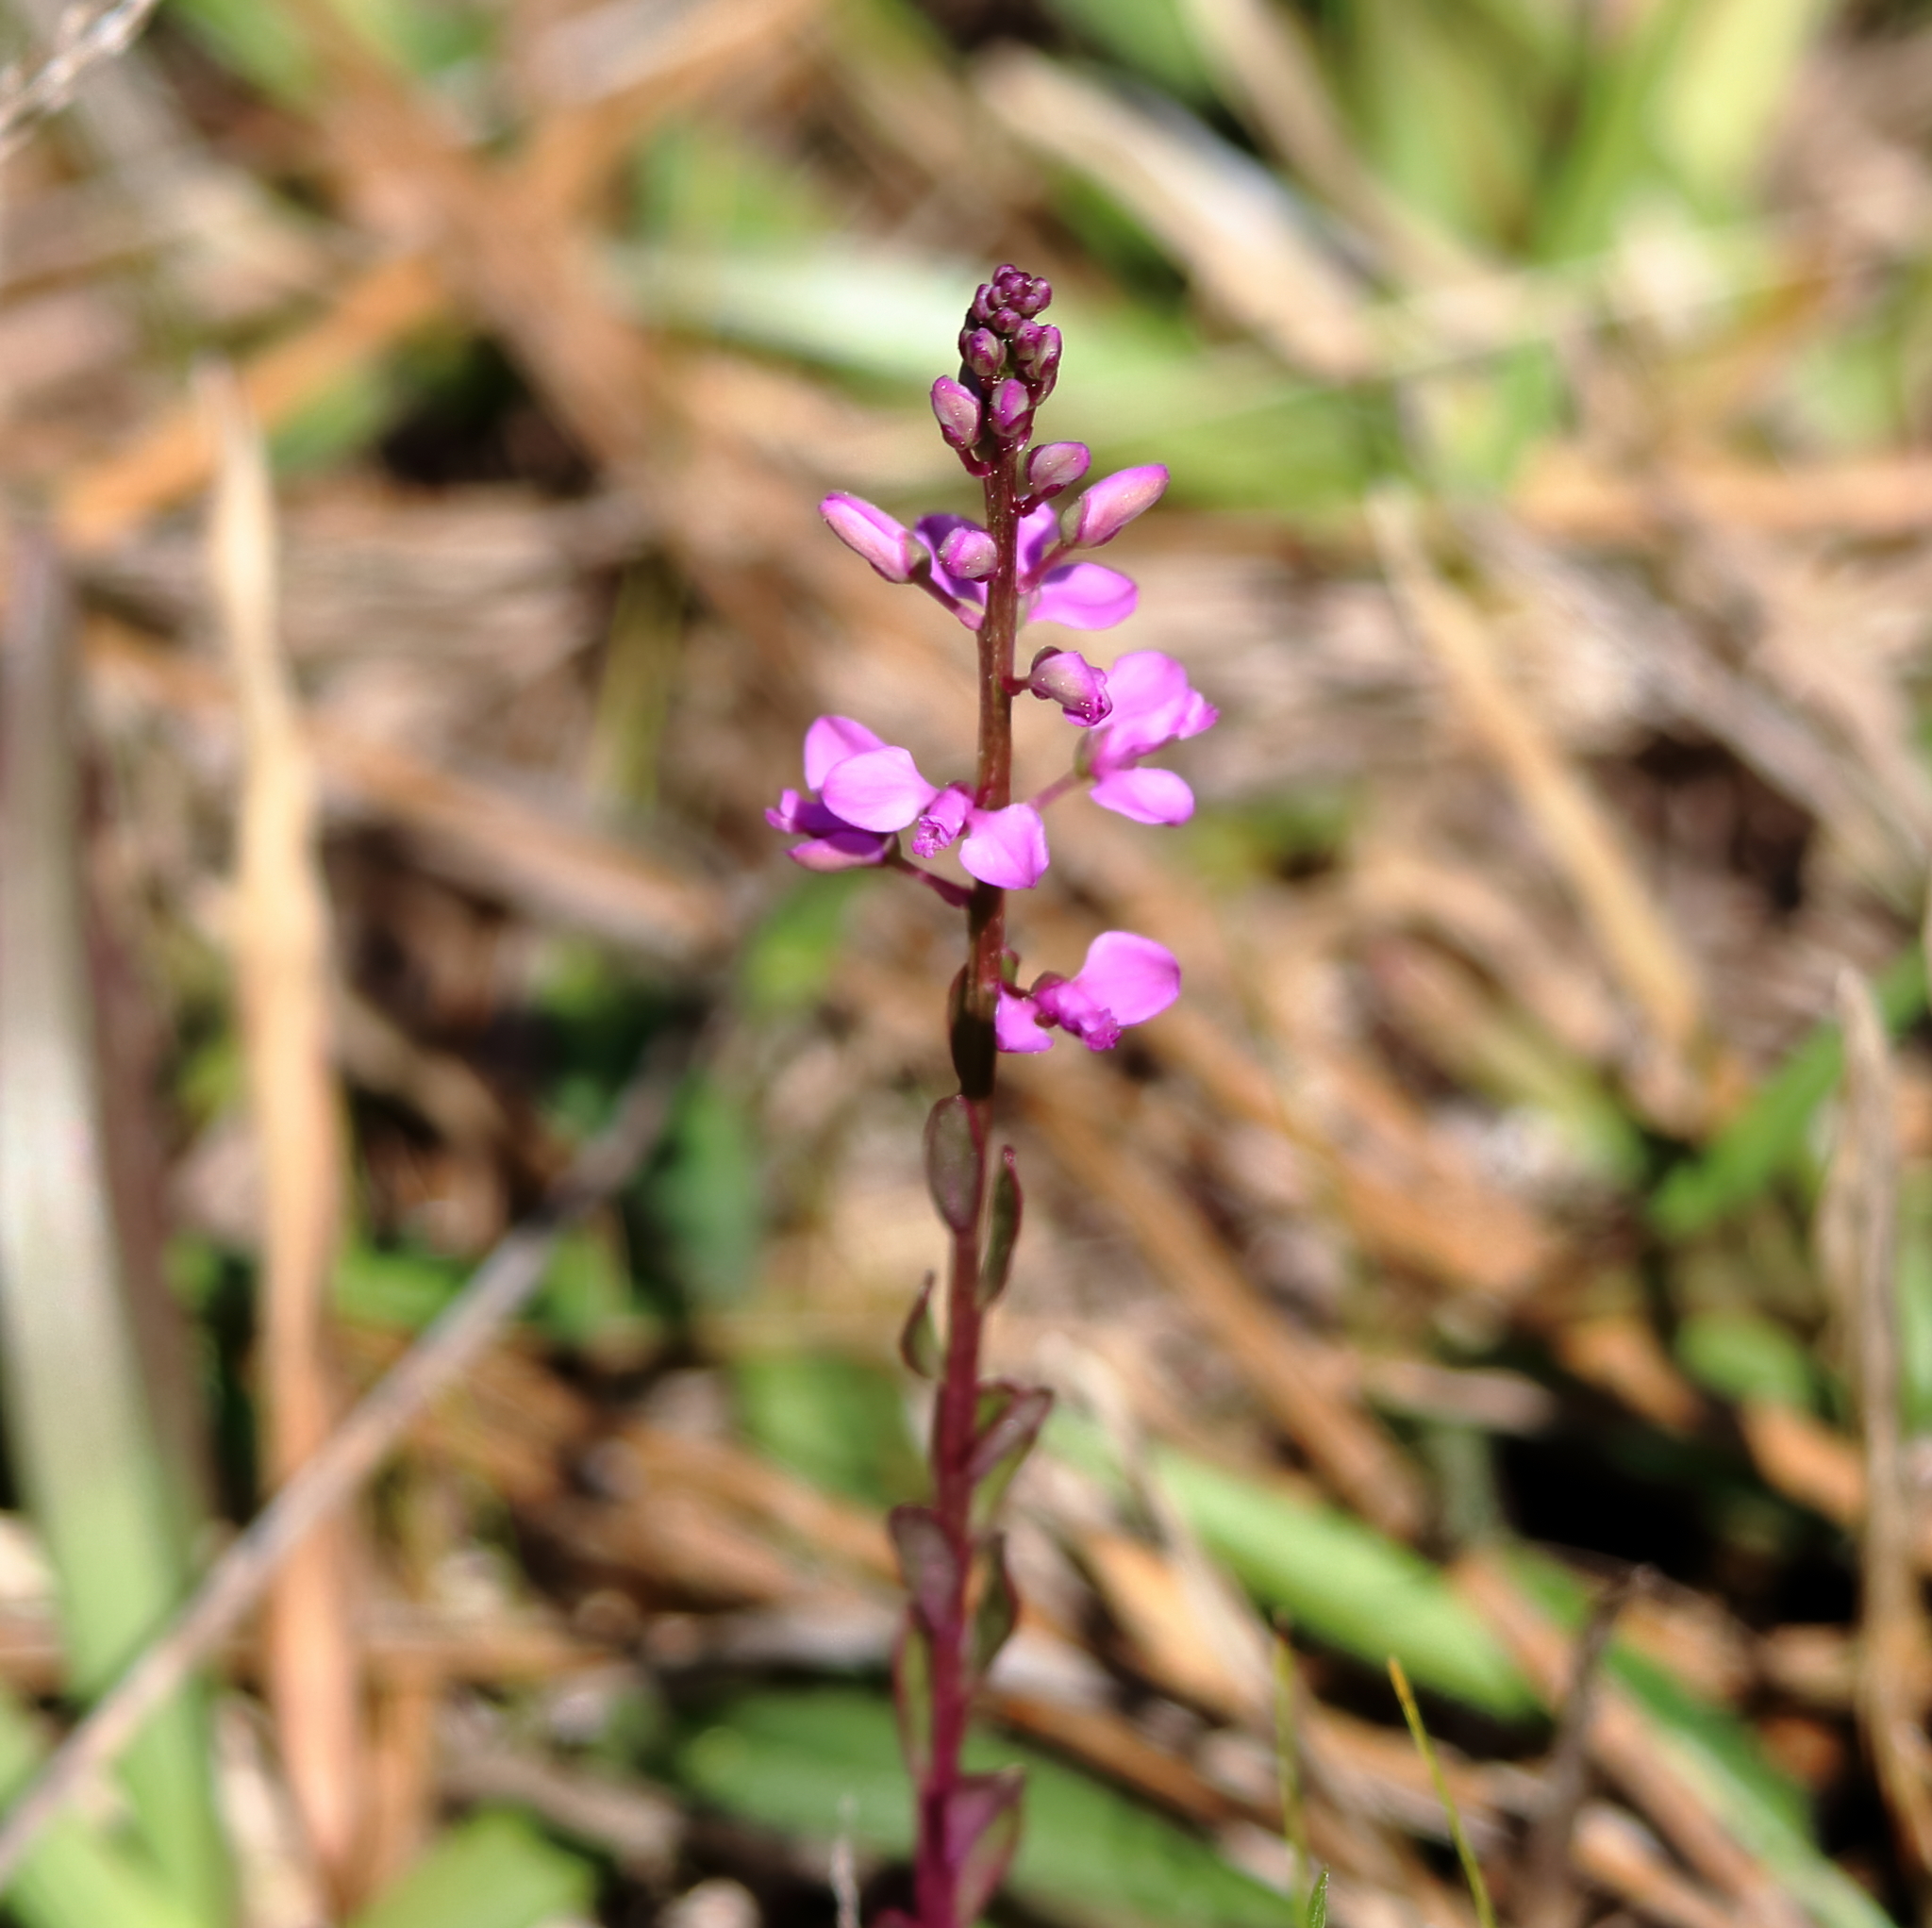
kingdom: Plantae
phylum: Tracheophyta
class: Magnoliopsida
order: Fabales
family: Polygalaceae
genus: Polygala
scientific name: Polygala polygama
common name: Bitter milkwort
